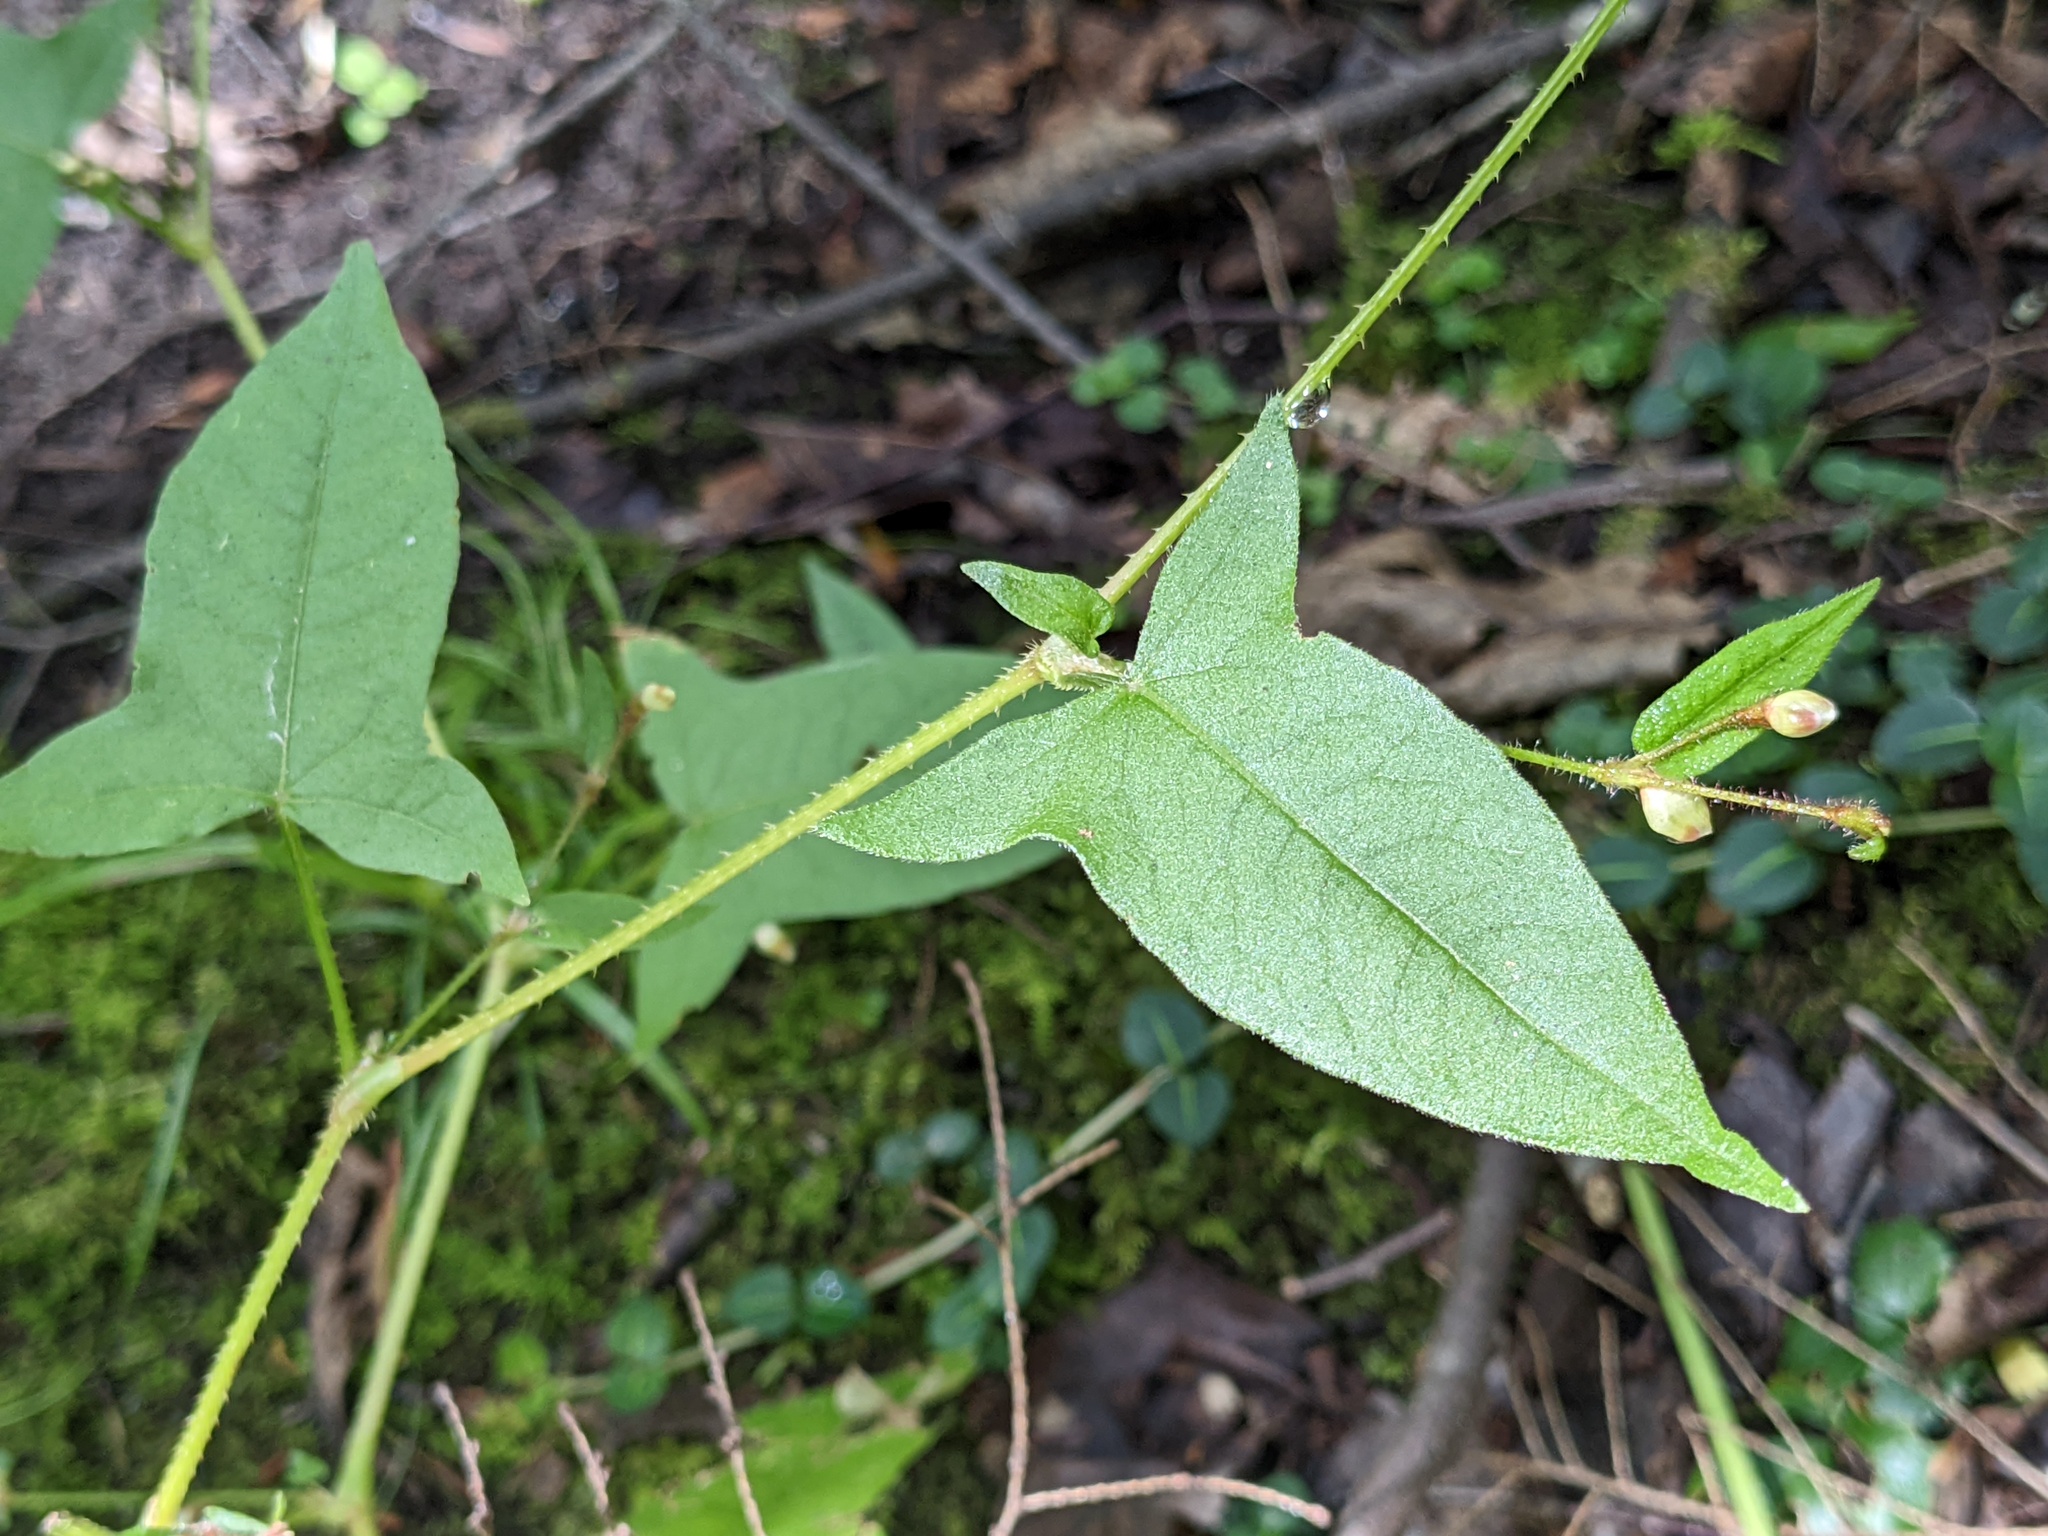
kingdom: Plantae
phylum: Tracheophyta
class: Magnoliopsida
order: Caryophyllales
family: Polygonaceae
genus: Persicaria
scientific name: Persicaria arifolia
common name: Halberd-leaved tear-thumb
